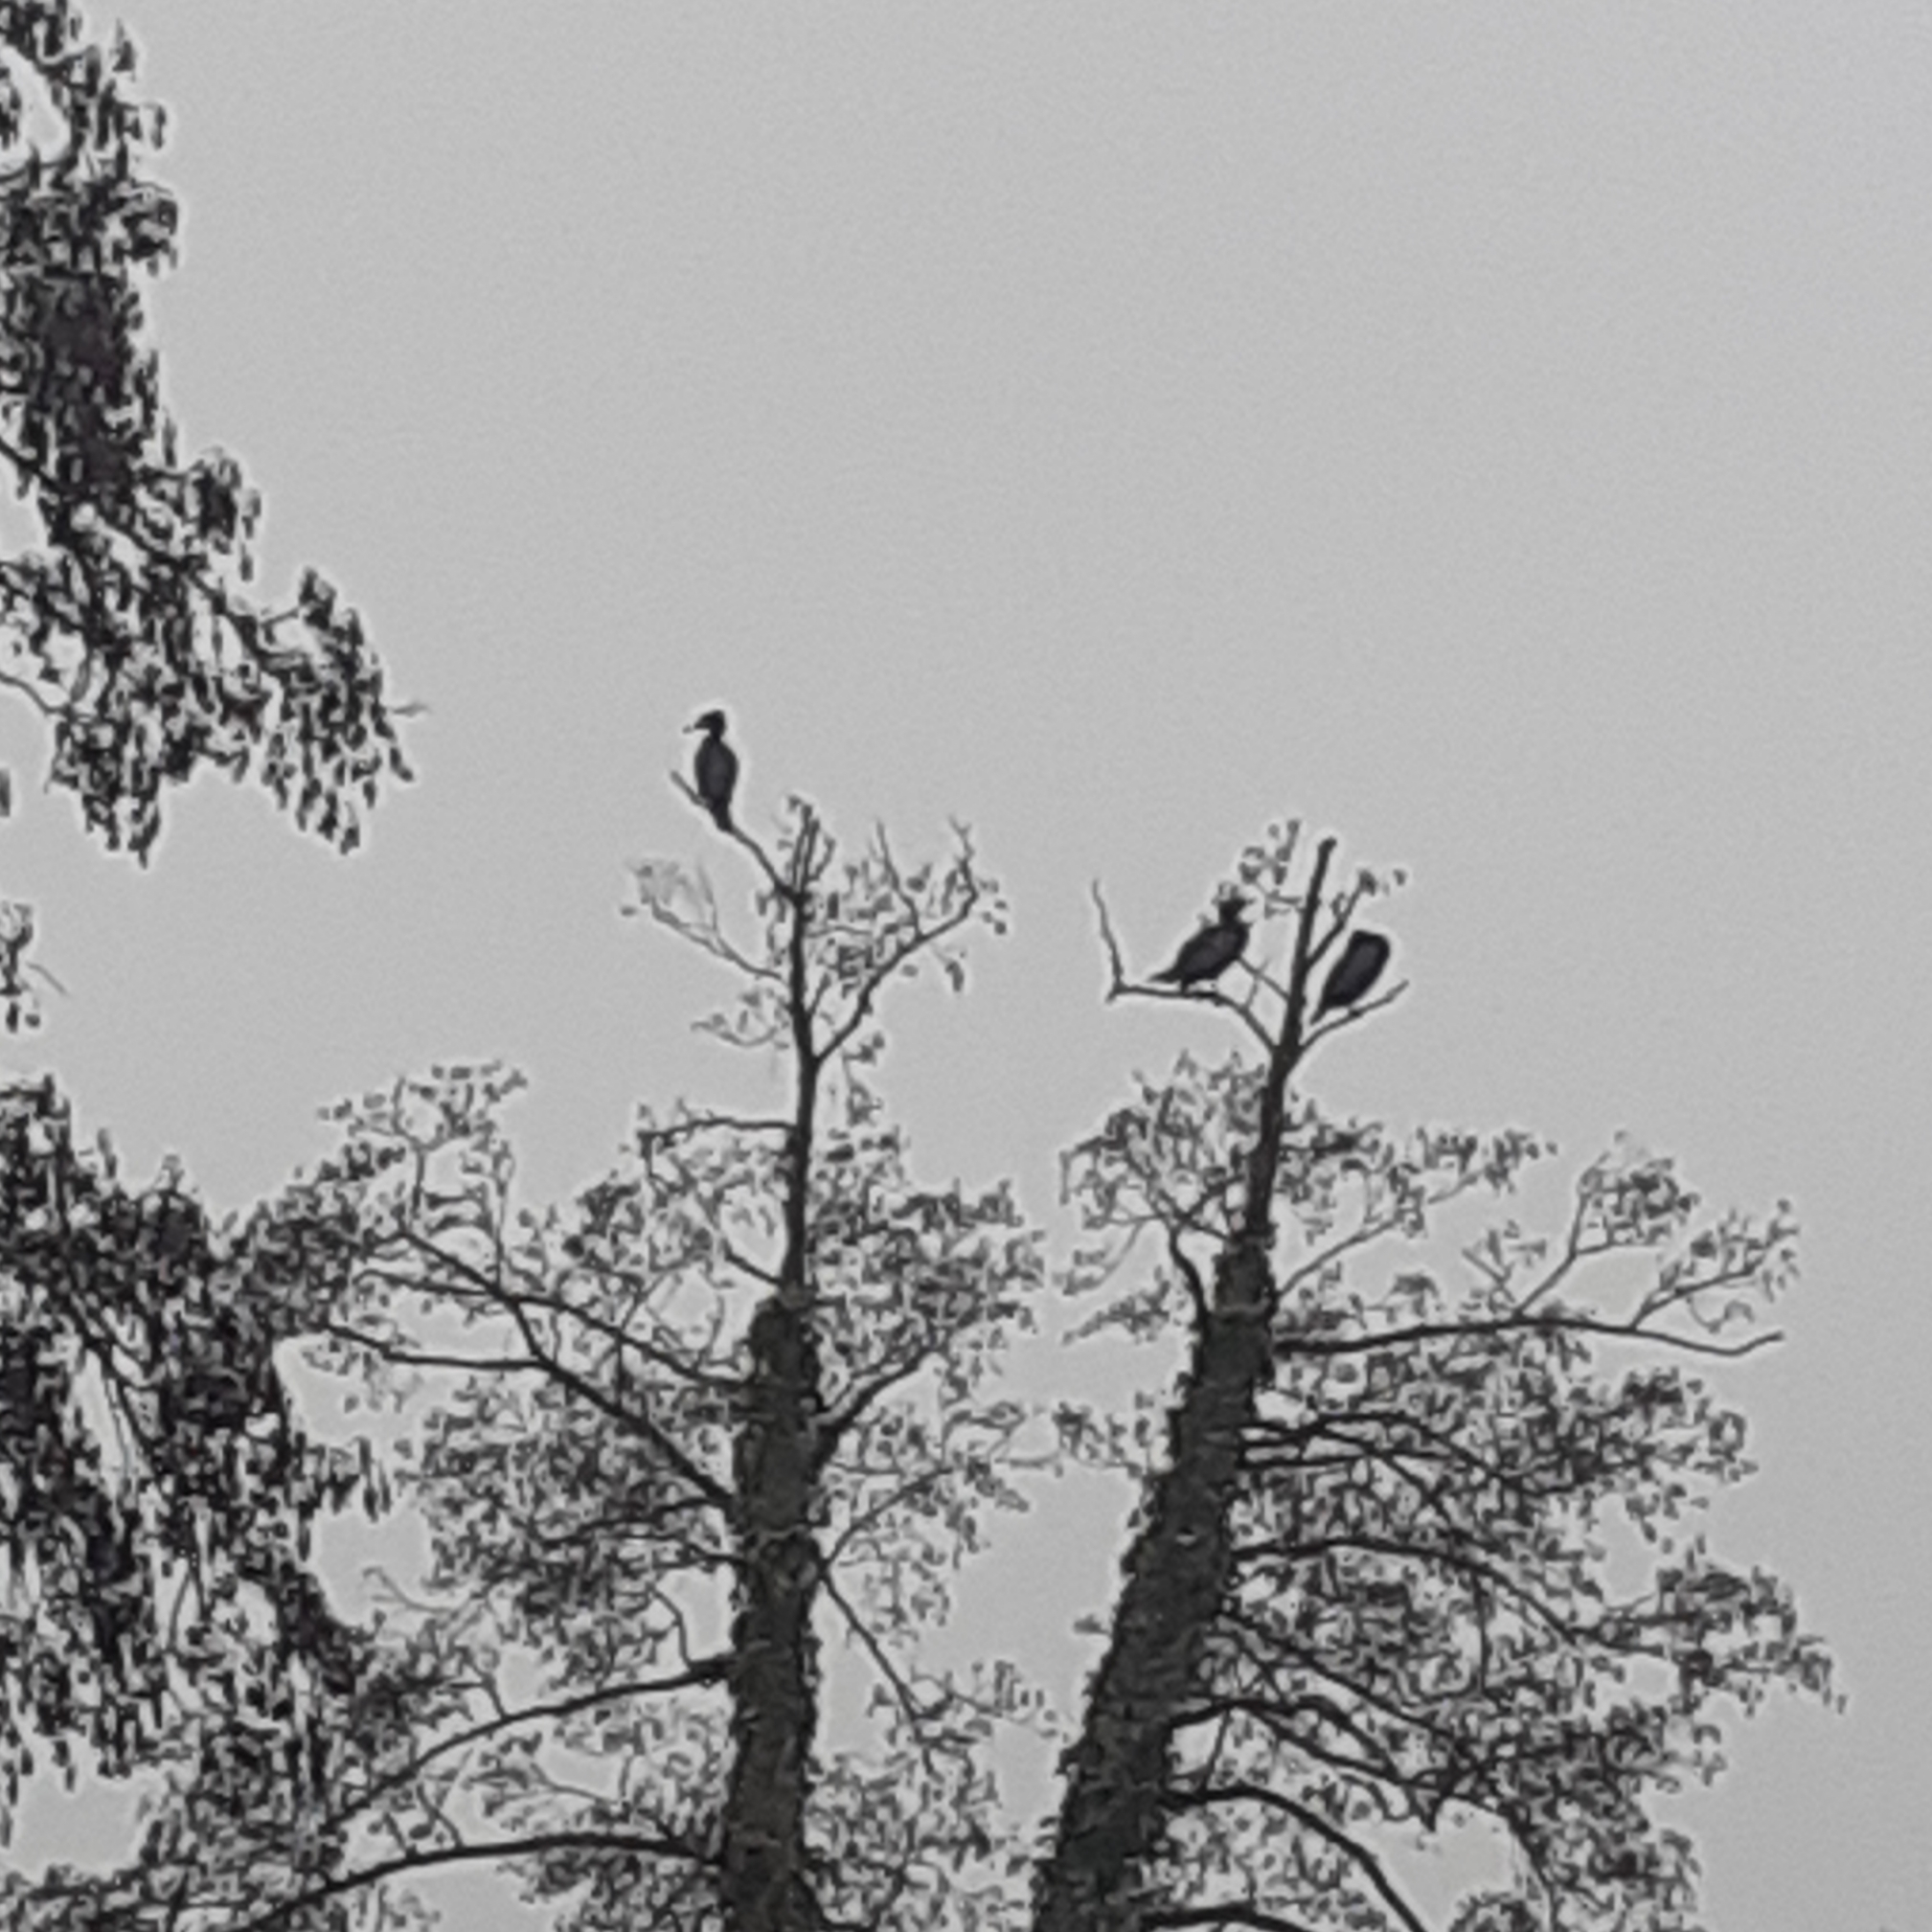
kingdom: Animalia
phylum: Chordata
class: Aves
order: Suliformes
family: Phalacrocoracidae
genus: Phalacrocorax
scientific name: Phalacrocorax carbo
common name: Great cormorant
